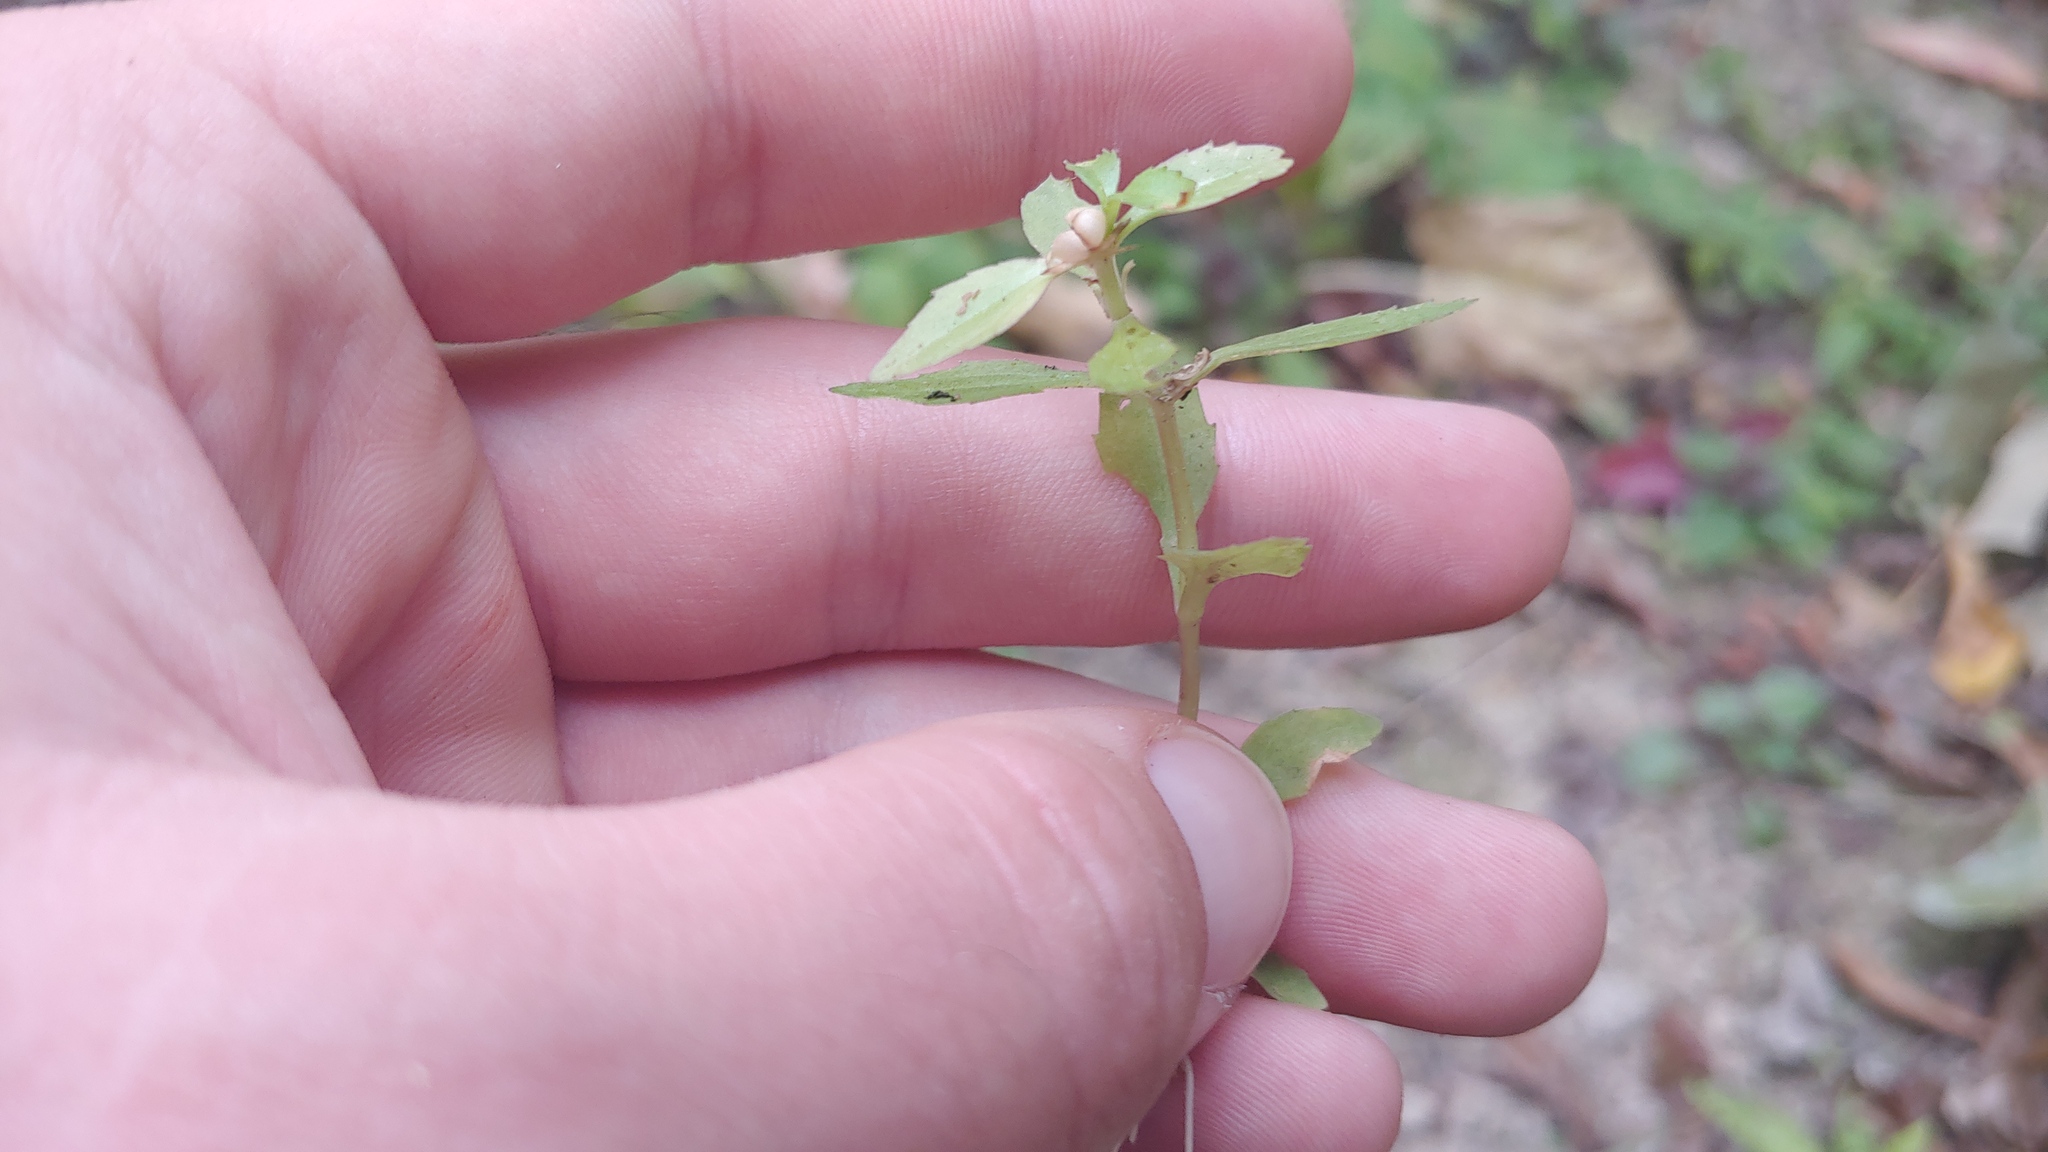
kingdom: Plantae
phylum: Tracheophyta
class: Magnoliopsida
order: Lamiales
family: Plantaginaceae
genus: Gratiola
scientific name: Gratiola virginiana
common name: Roundfruit hedgehyssop
